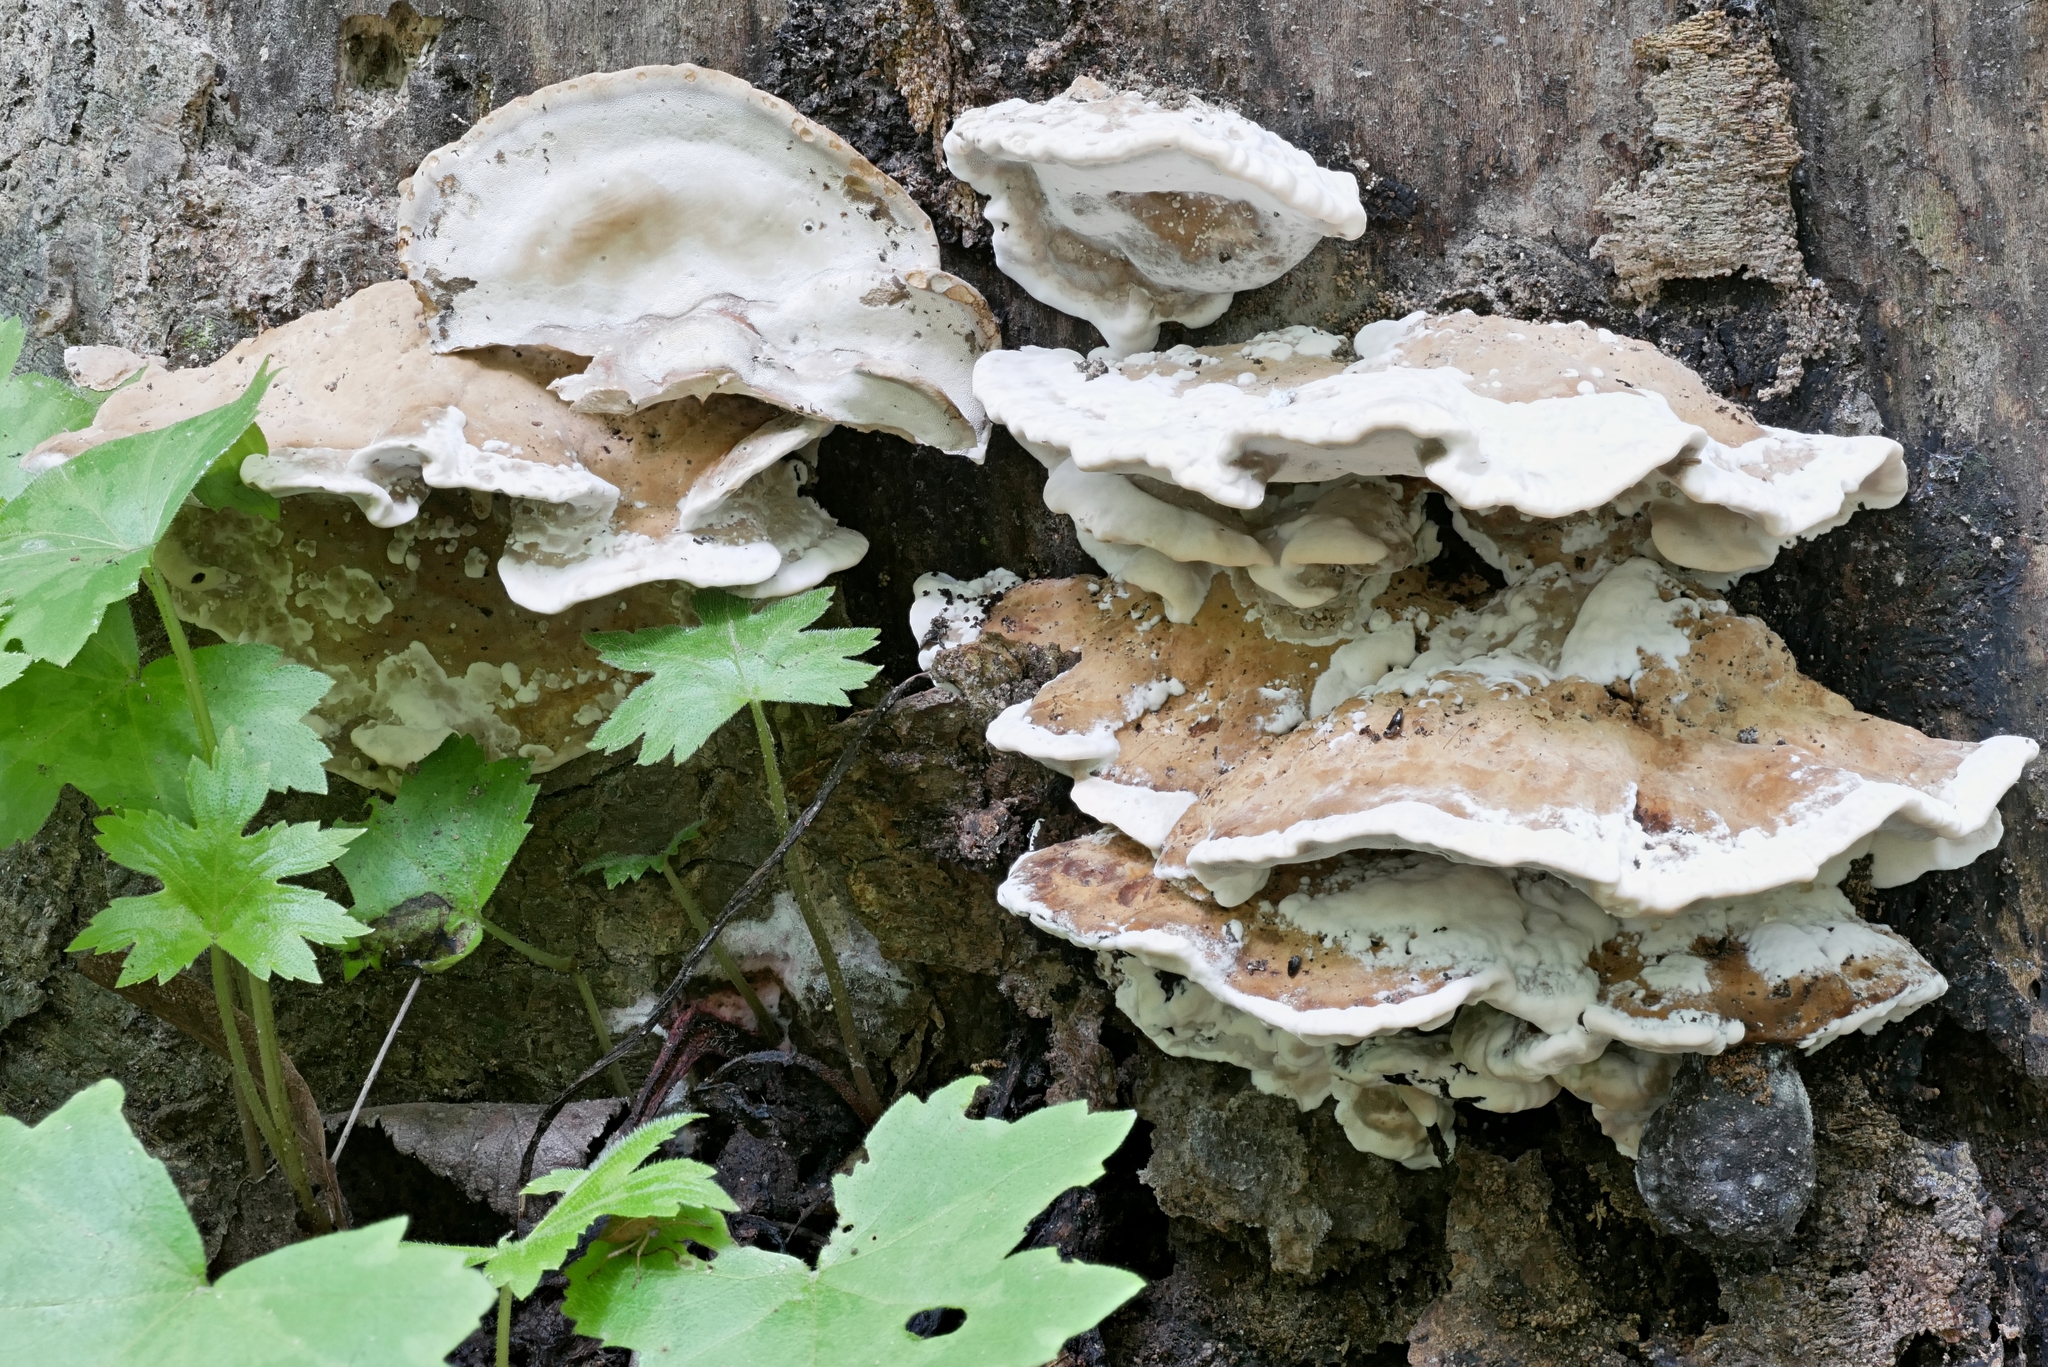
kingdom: Fungi
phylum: Basidiomycota
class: Agaricomycetes
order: Polyporales
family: Phanerochaetaceae
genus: Bjerkandera
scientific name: Bjerkandera fumosa
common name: Big smoky bracket
